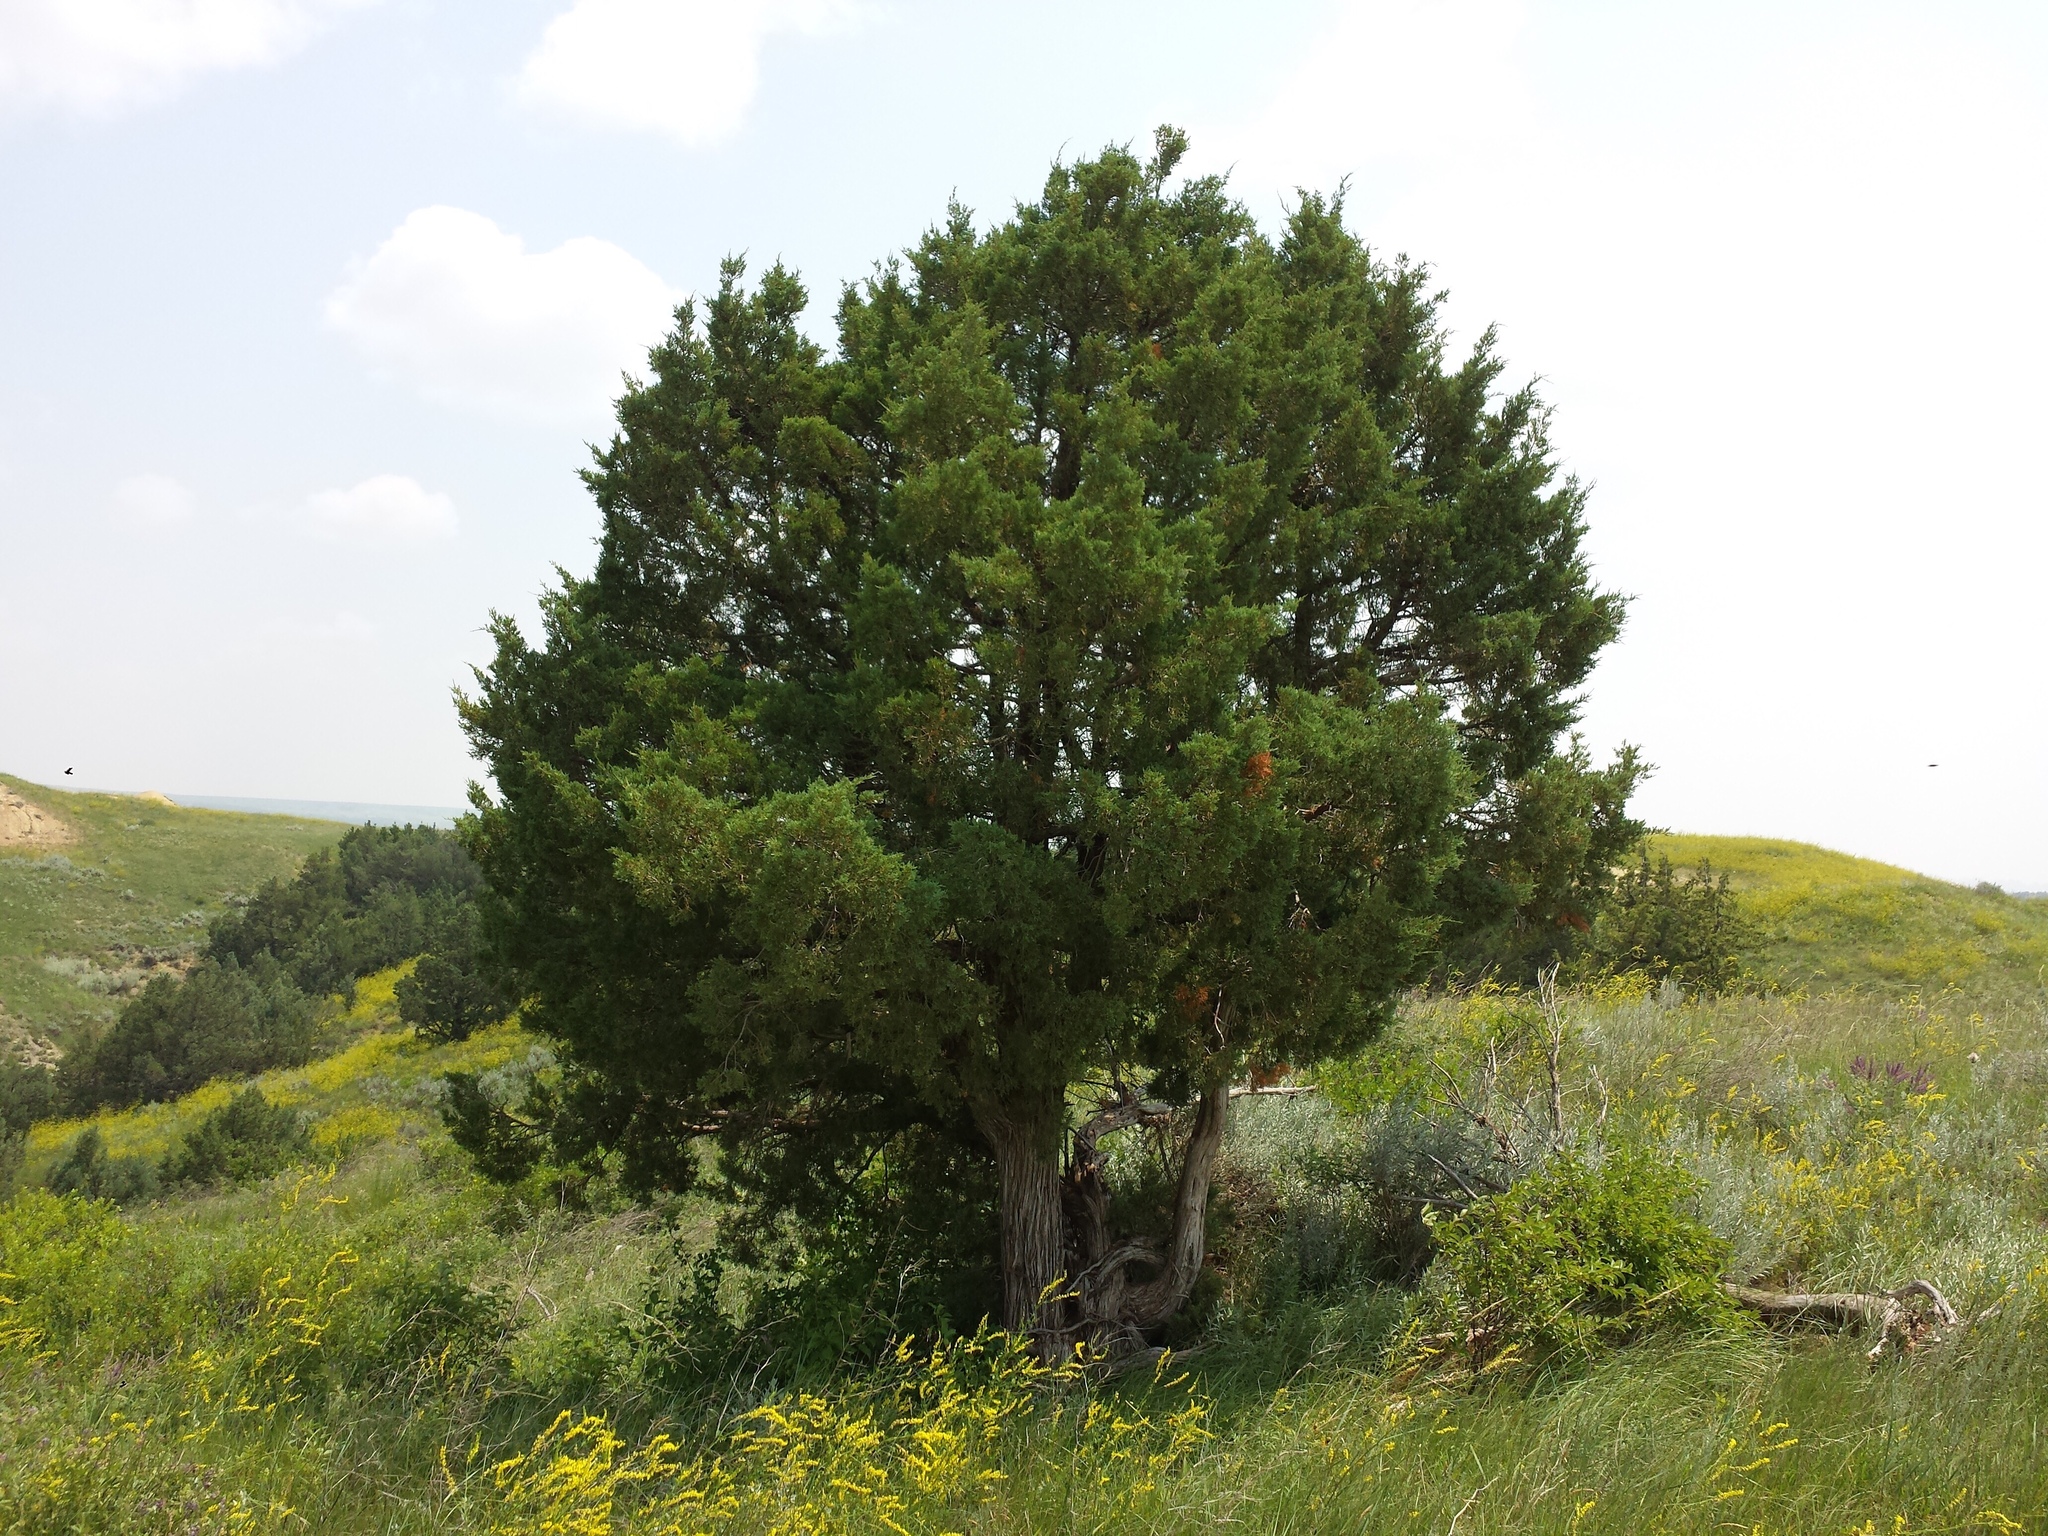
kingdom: Plantae
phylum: Tracheophyta
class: Pinopsida
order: Pinales
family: Cupressaceae
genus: Juniperus
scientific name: Juniperus scopulorum
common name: Rocky mountain juniper
